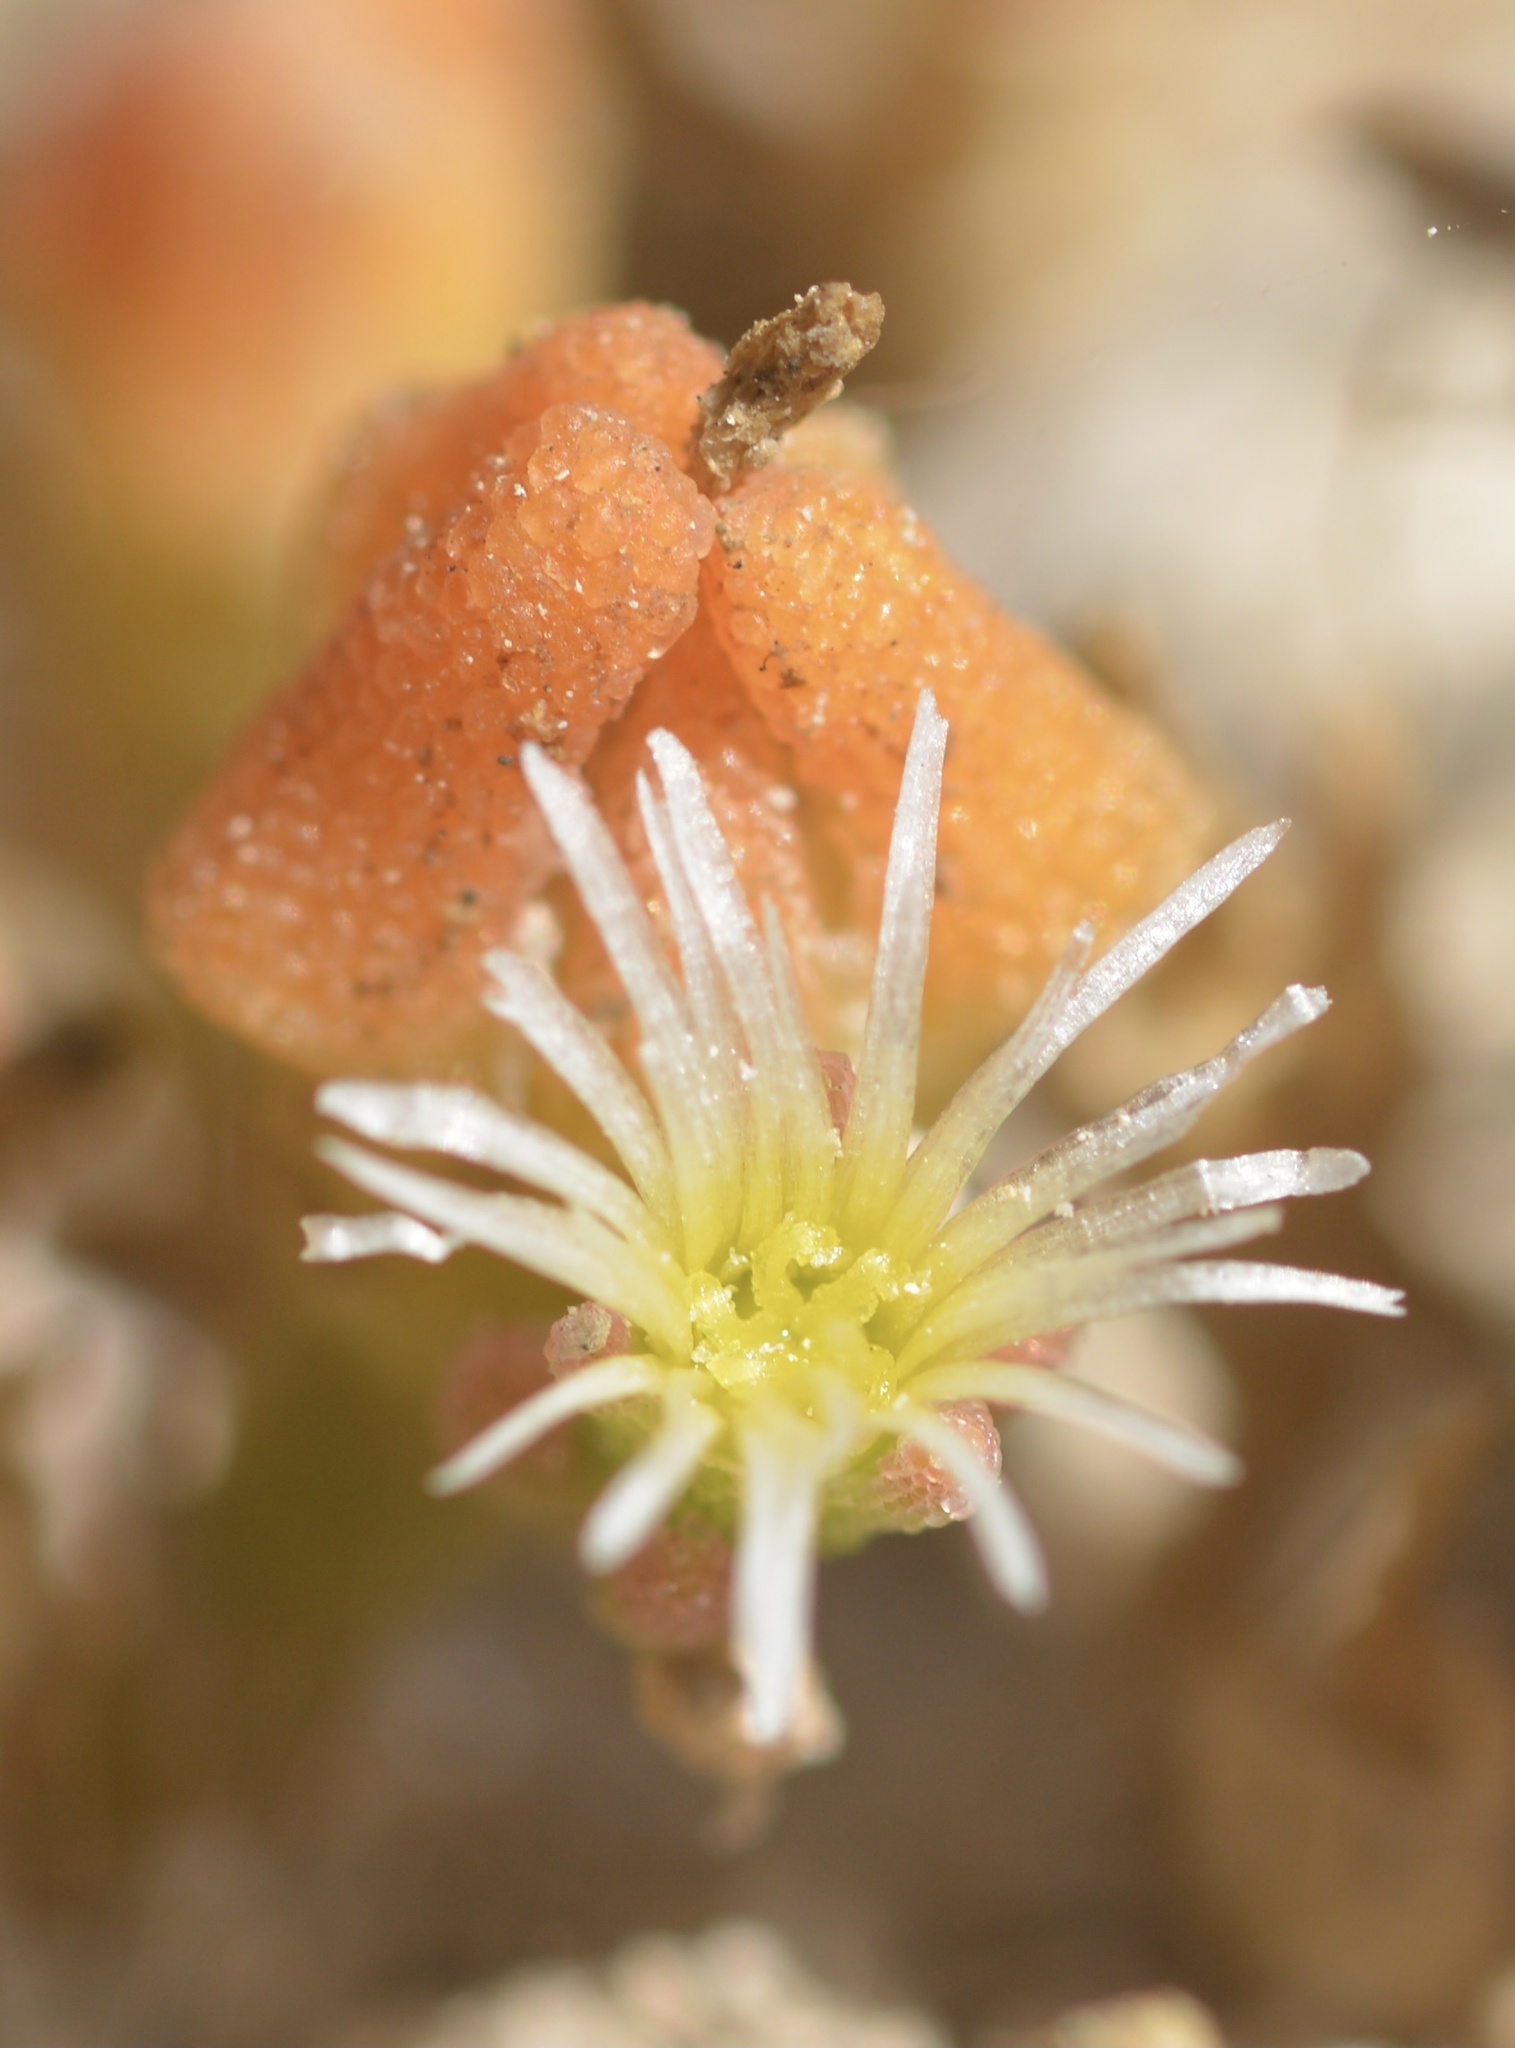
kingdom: Plantae
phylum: Tracheophyta
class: Magnoliopsida
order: Caryophyllales
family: Aizoaceae
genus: Mesembryanthemum
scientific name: Mesembryanthemum nodiflorum
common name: Slenderleaf iceplant
